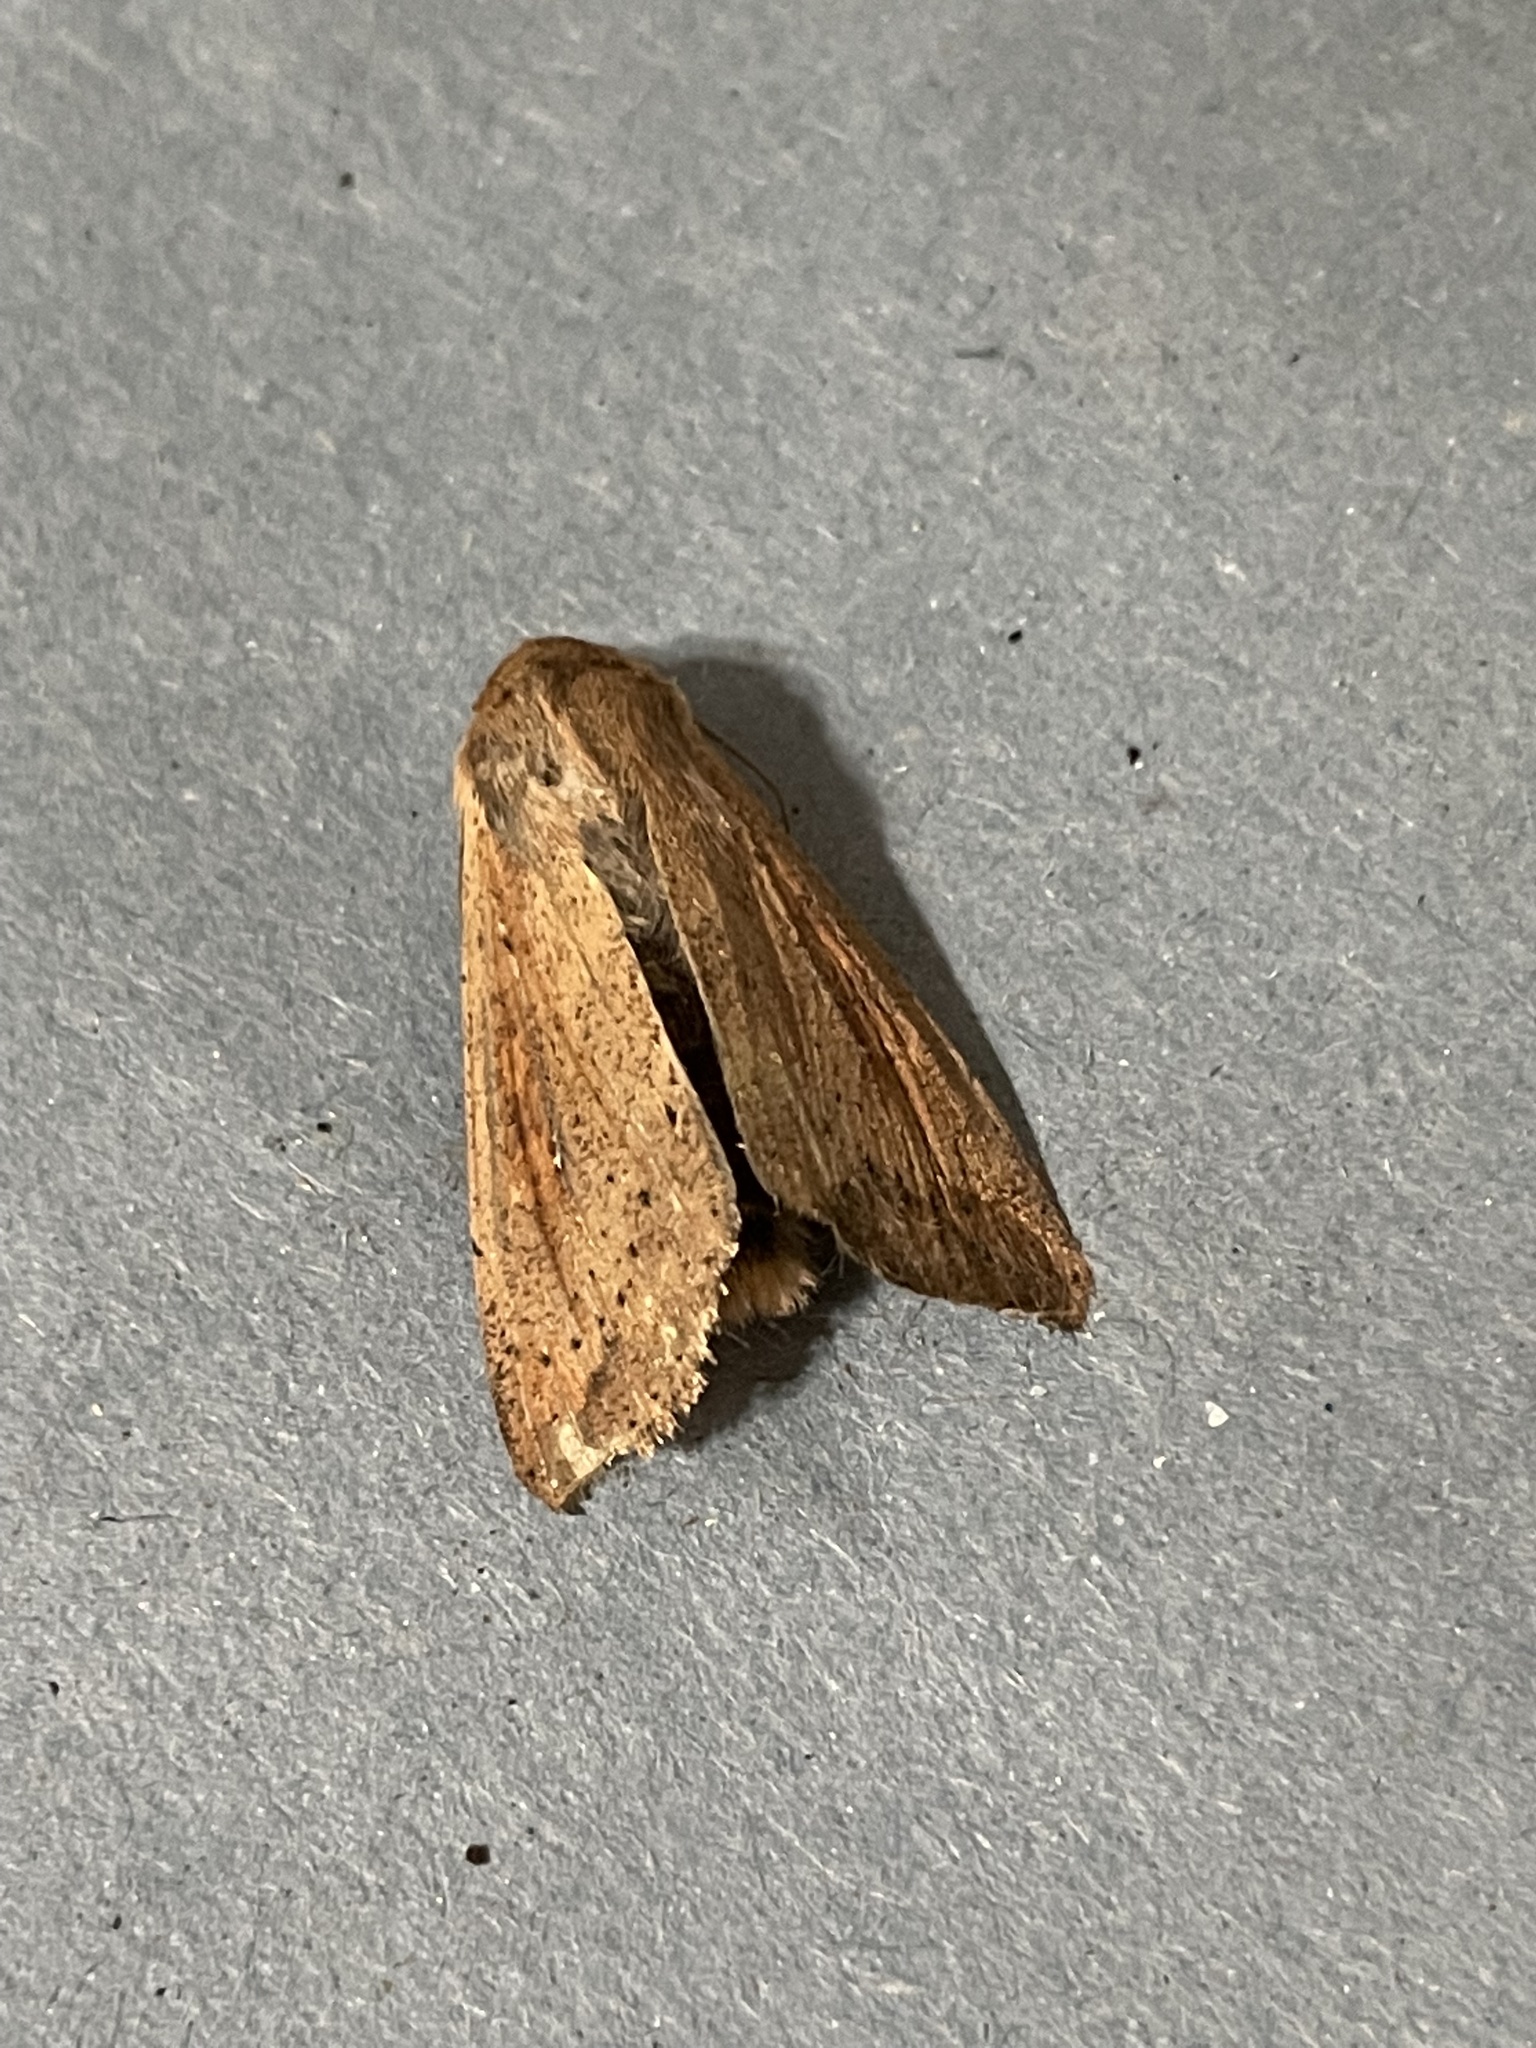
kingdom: Animalia
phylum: Arthropoda
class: Insecta
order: Lepidoptera
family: Noctuidae
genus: Mythimna
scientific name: Mythimna unipuncta
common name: White-speck
